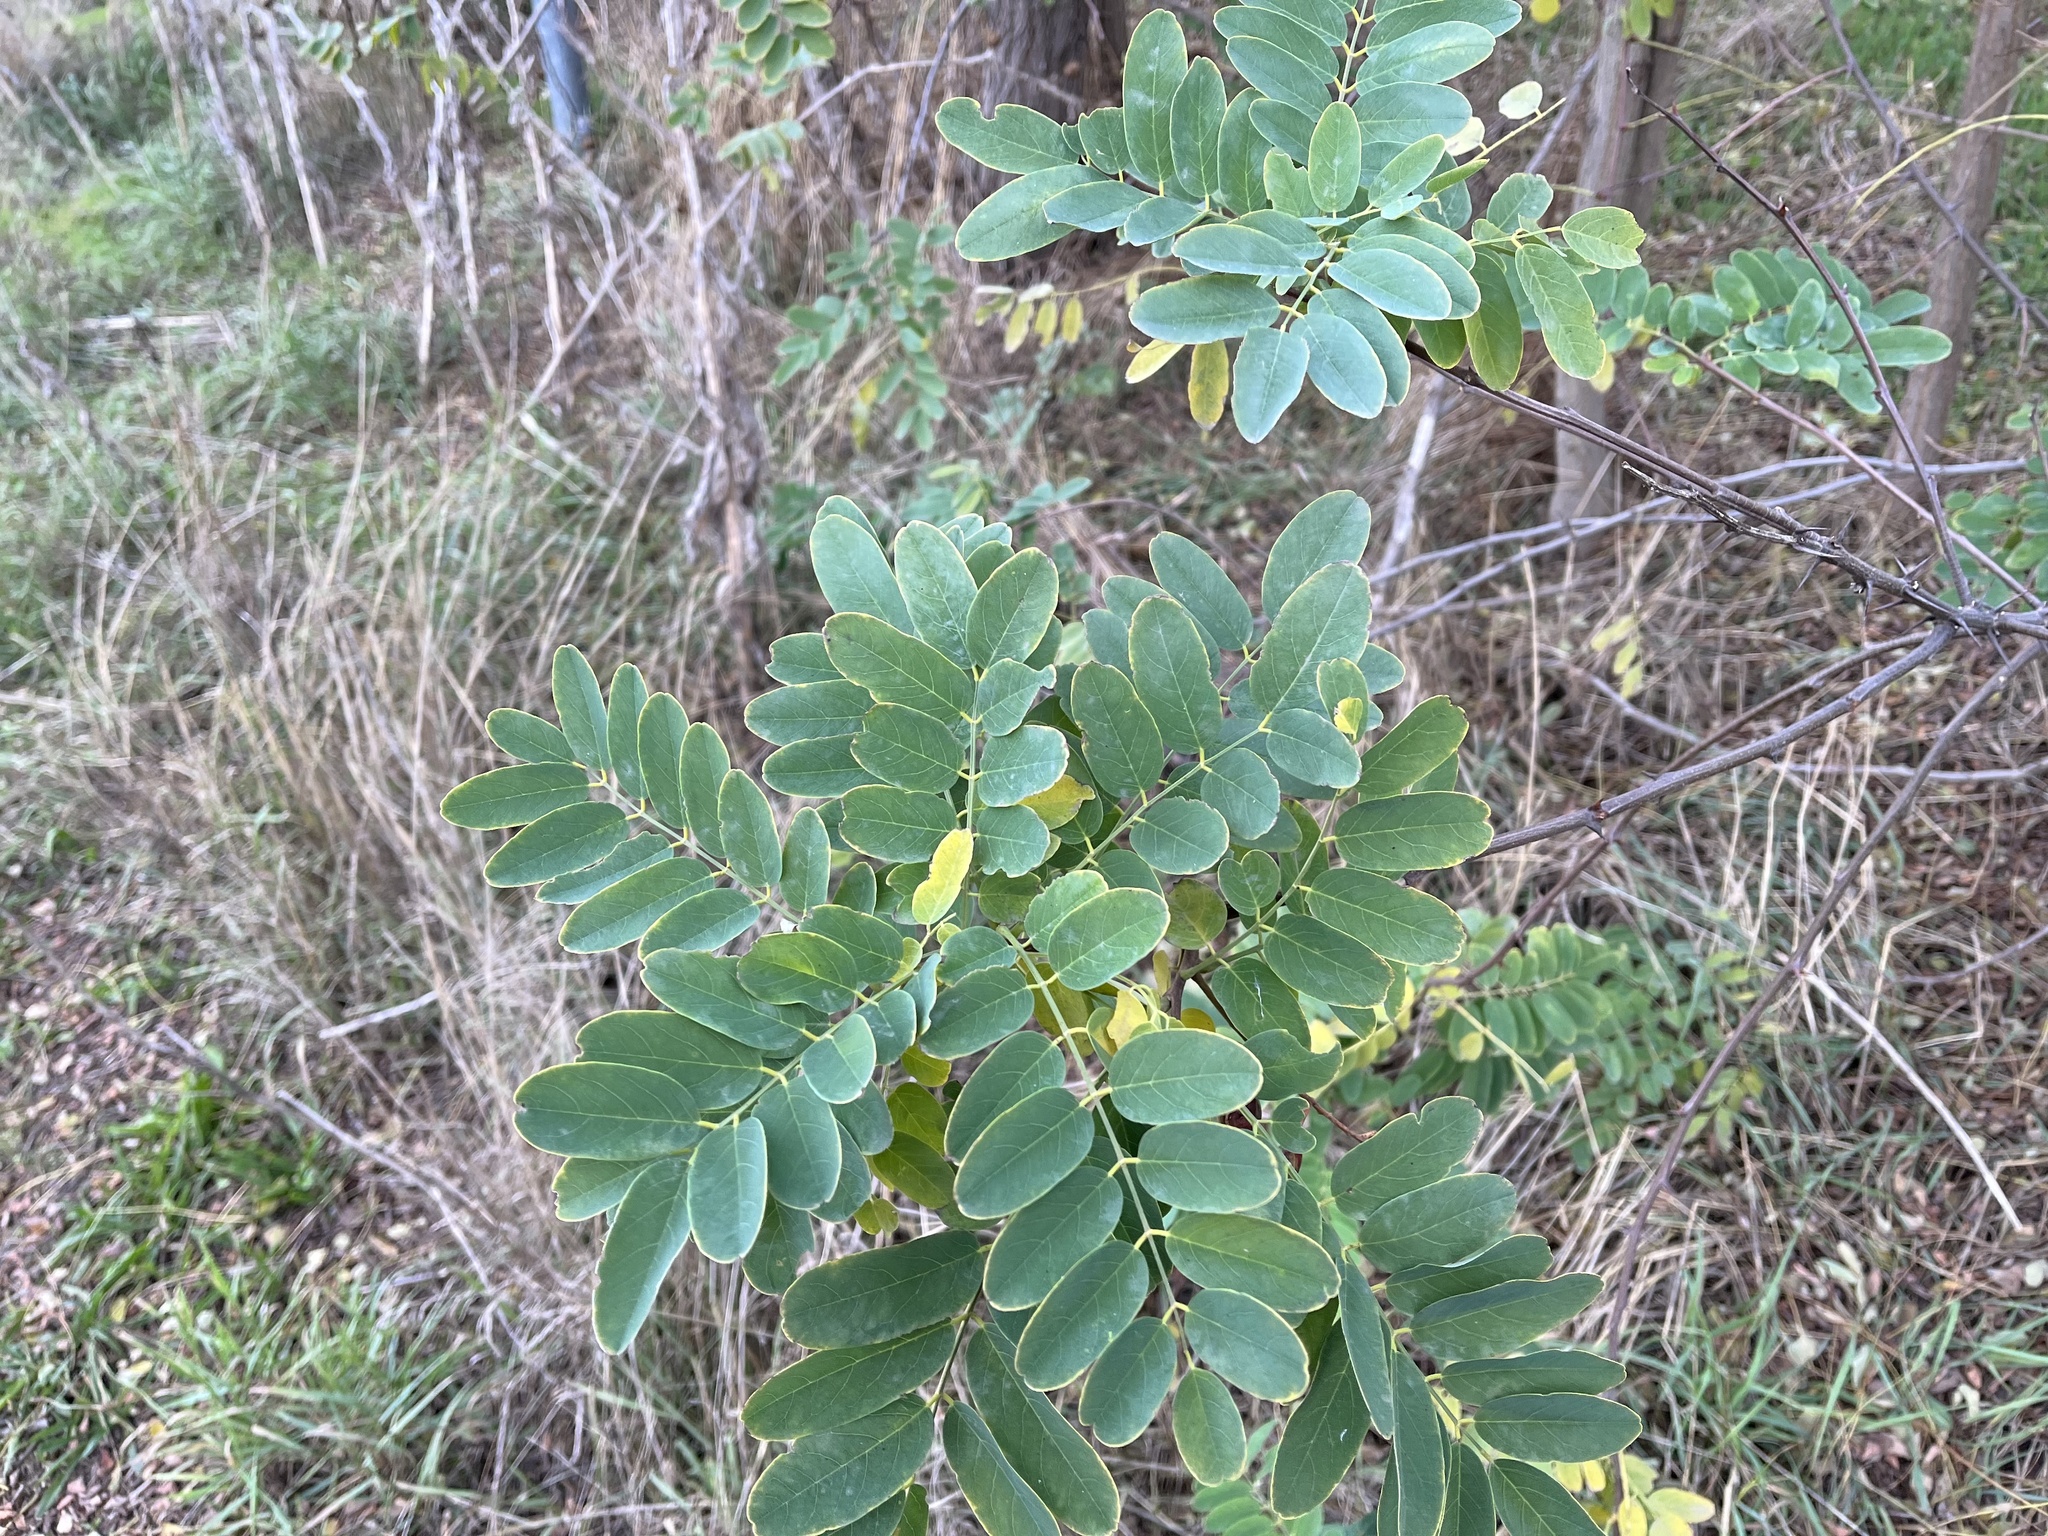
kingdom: Plantae
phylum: Tracheophyta
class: Magnoliopsida
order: Fabales
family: Fabaceae
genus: Robinia
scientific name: Robinia pseudoacacia
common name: Black locust
